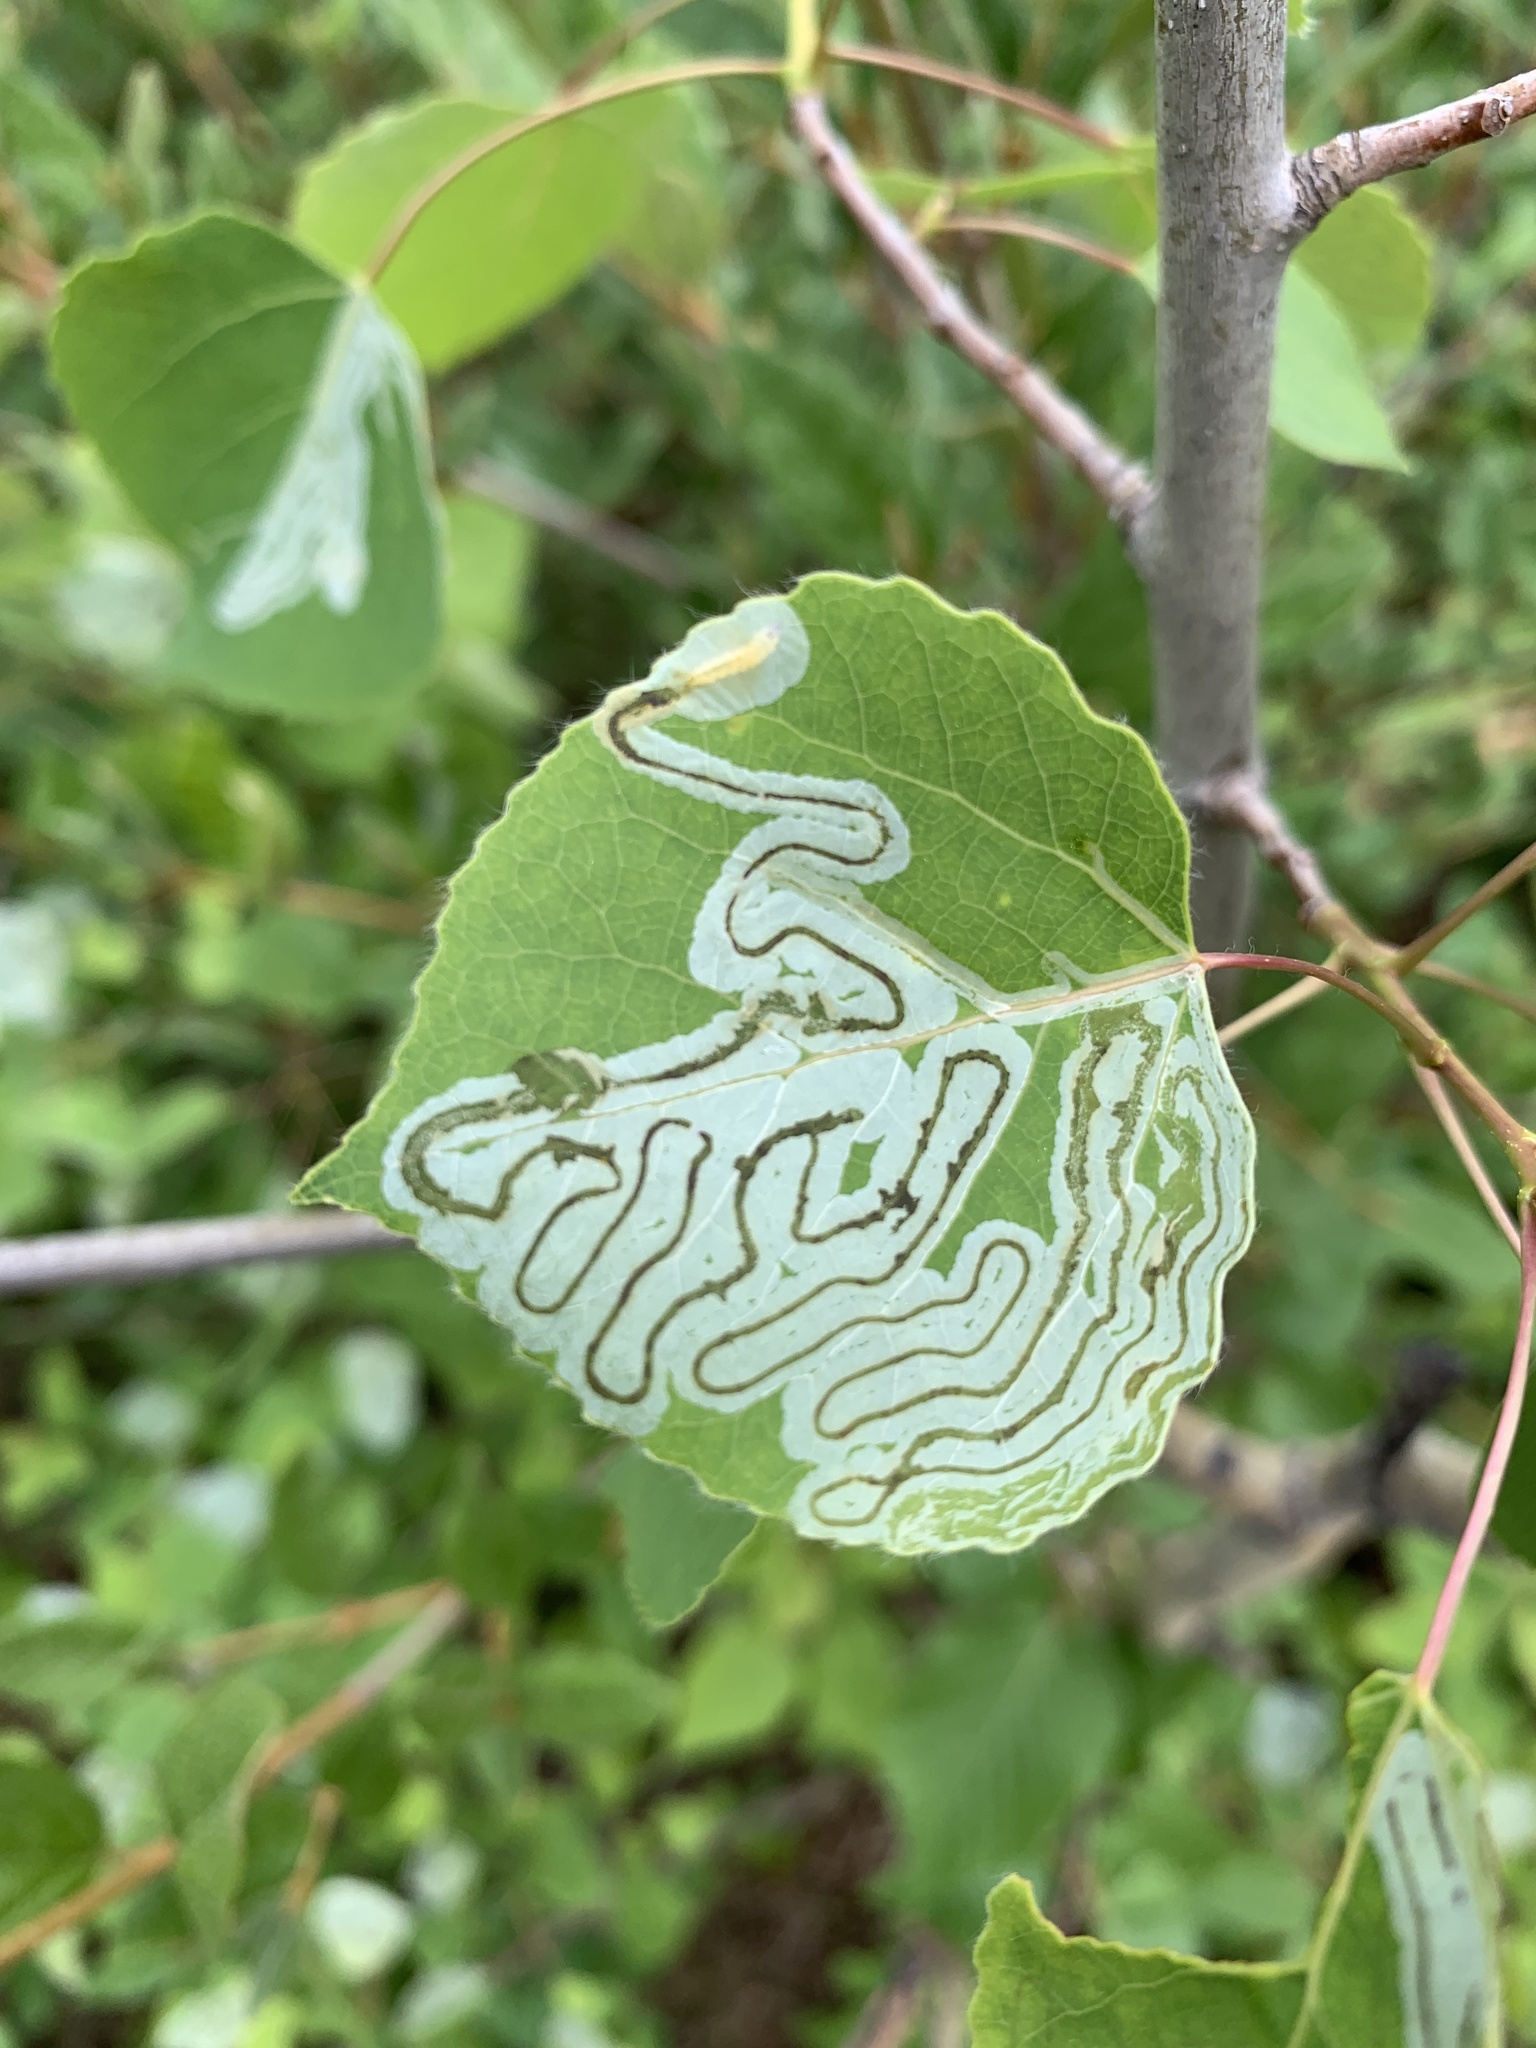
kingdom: Animalia
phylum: Arthropoda
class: Insecta
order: Lepidoptera
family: Gracillariidae
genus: Phyllocnistis
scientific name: Phyllocnistis populiella
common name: Aspen serpentine leafminer moth
